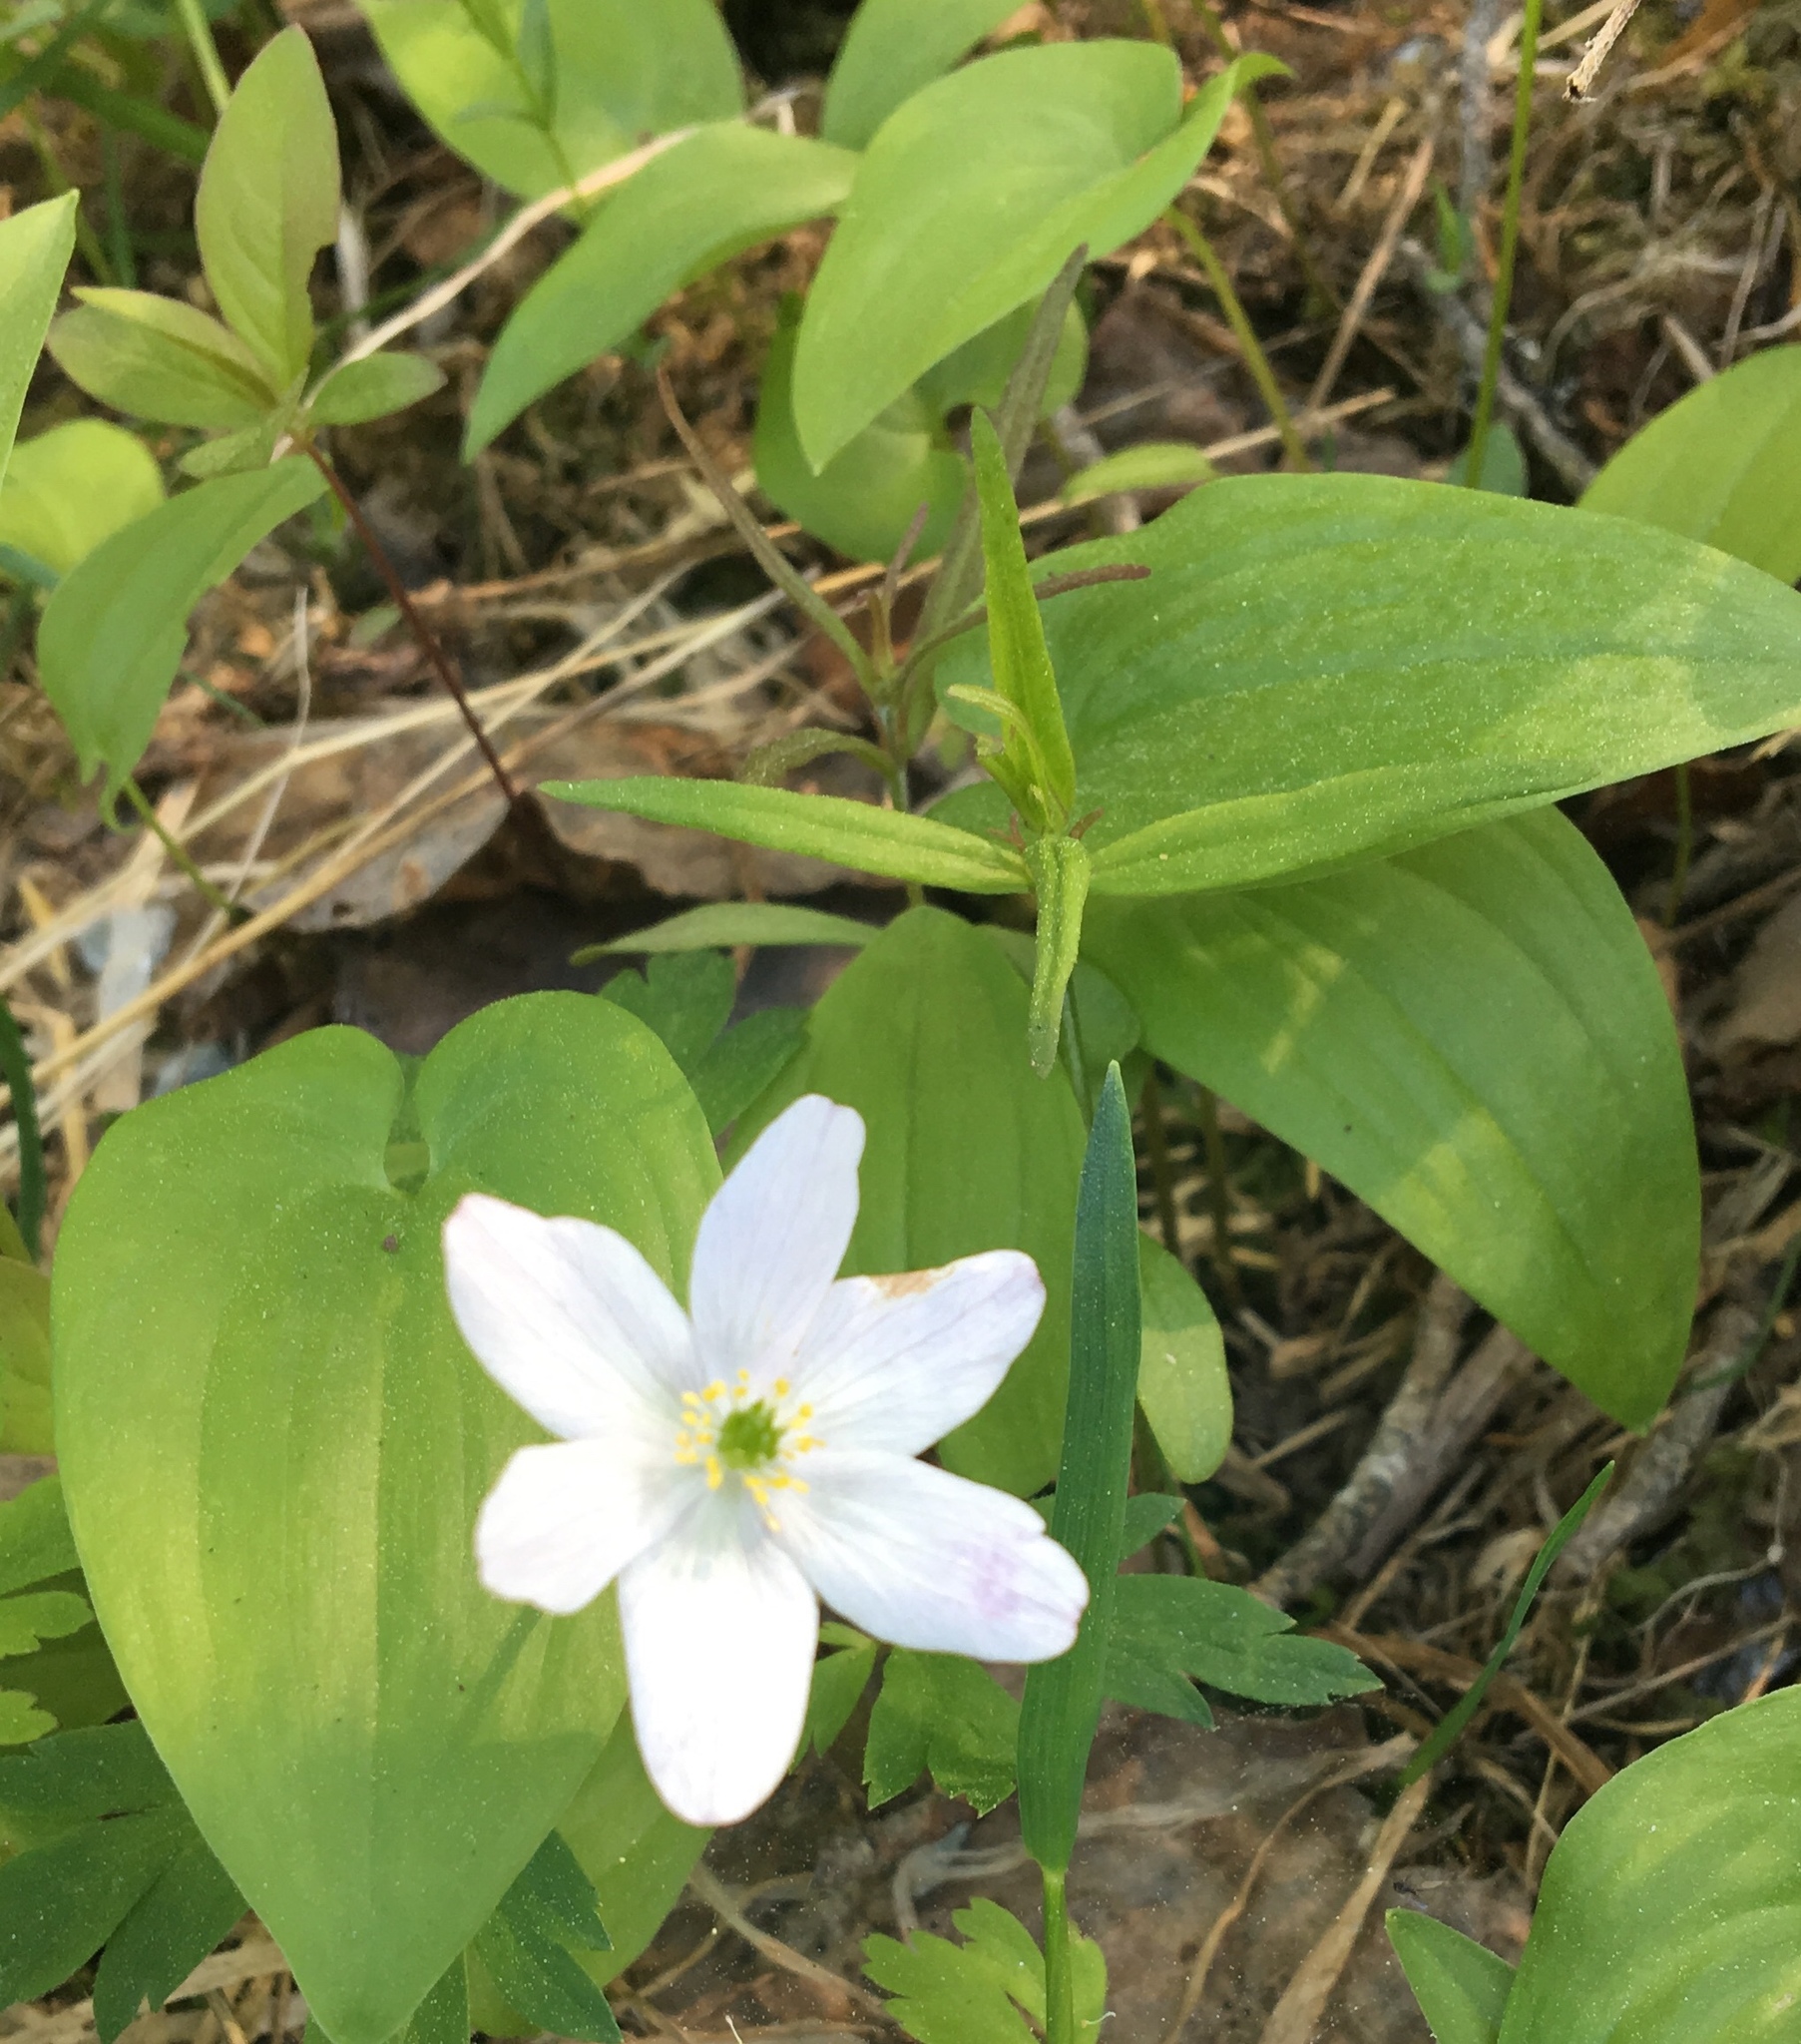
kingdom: Plantae
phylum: Tracheophyta
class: Magnoliopsida
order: Ranunculales
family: Ranunculaceae
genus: Anemone
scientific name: Anemone nemorosa
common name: Wood anemone
